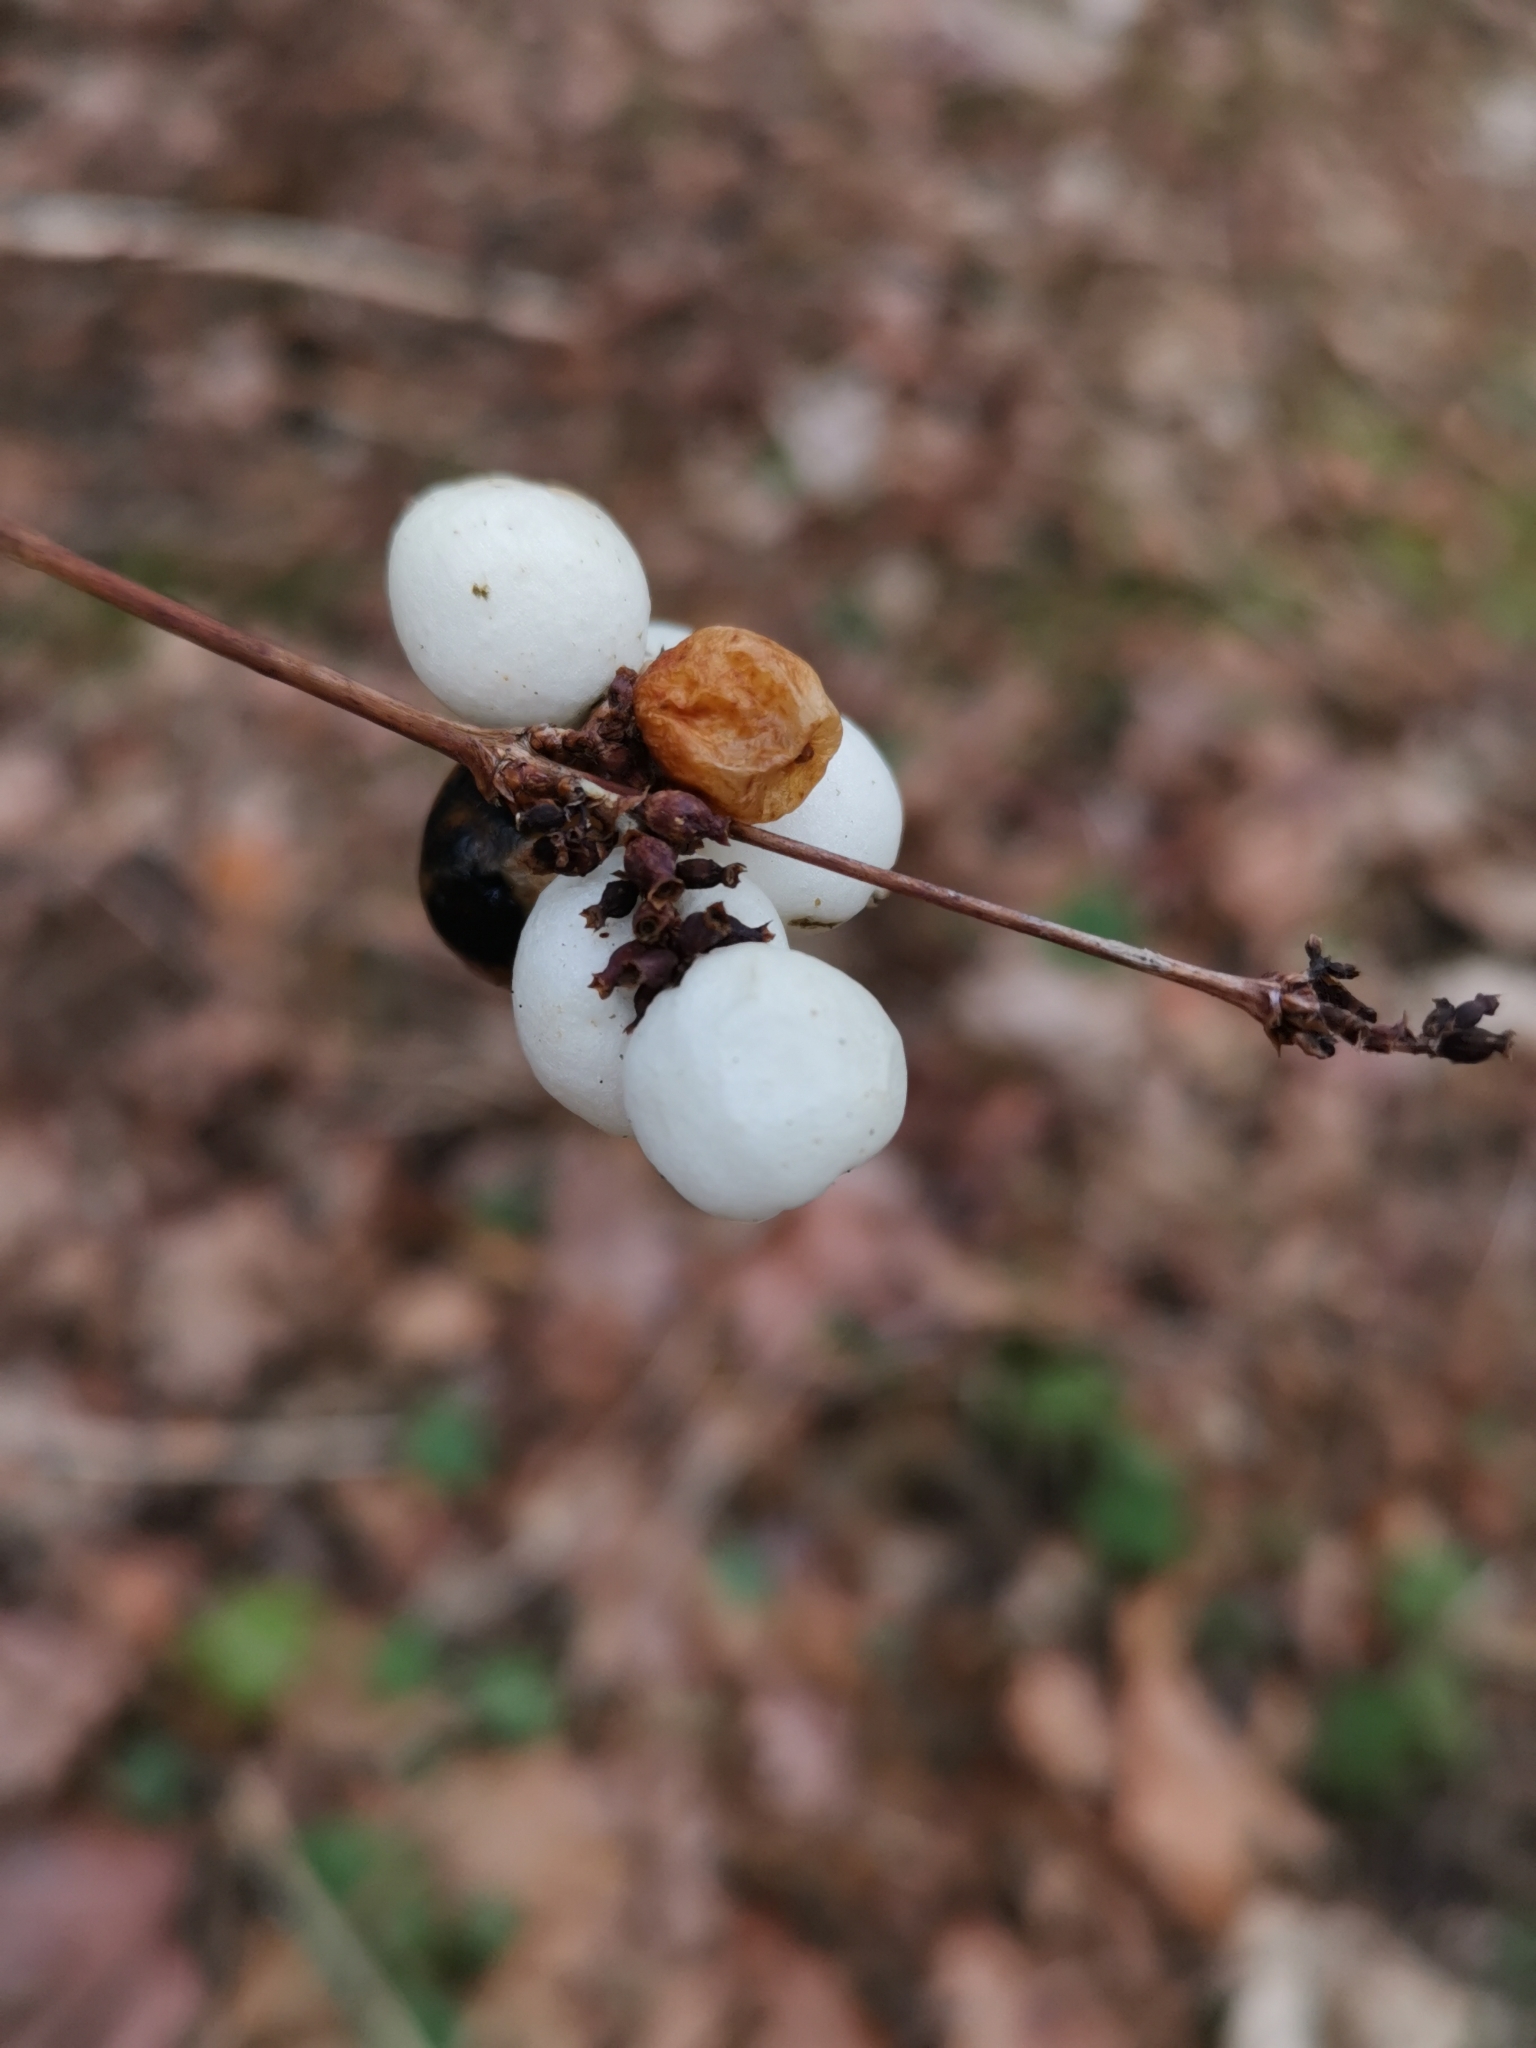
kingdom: Plantae
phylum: Tracheophyta
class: Magnoliopsida
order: Dipsacales
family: Caprifoliaceae
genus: Symphoricarpos
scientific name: Symphoricarpos albus
